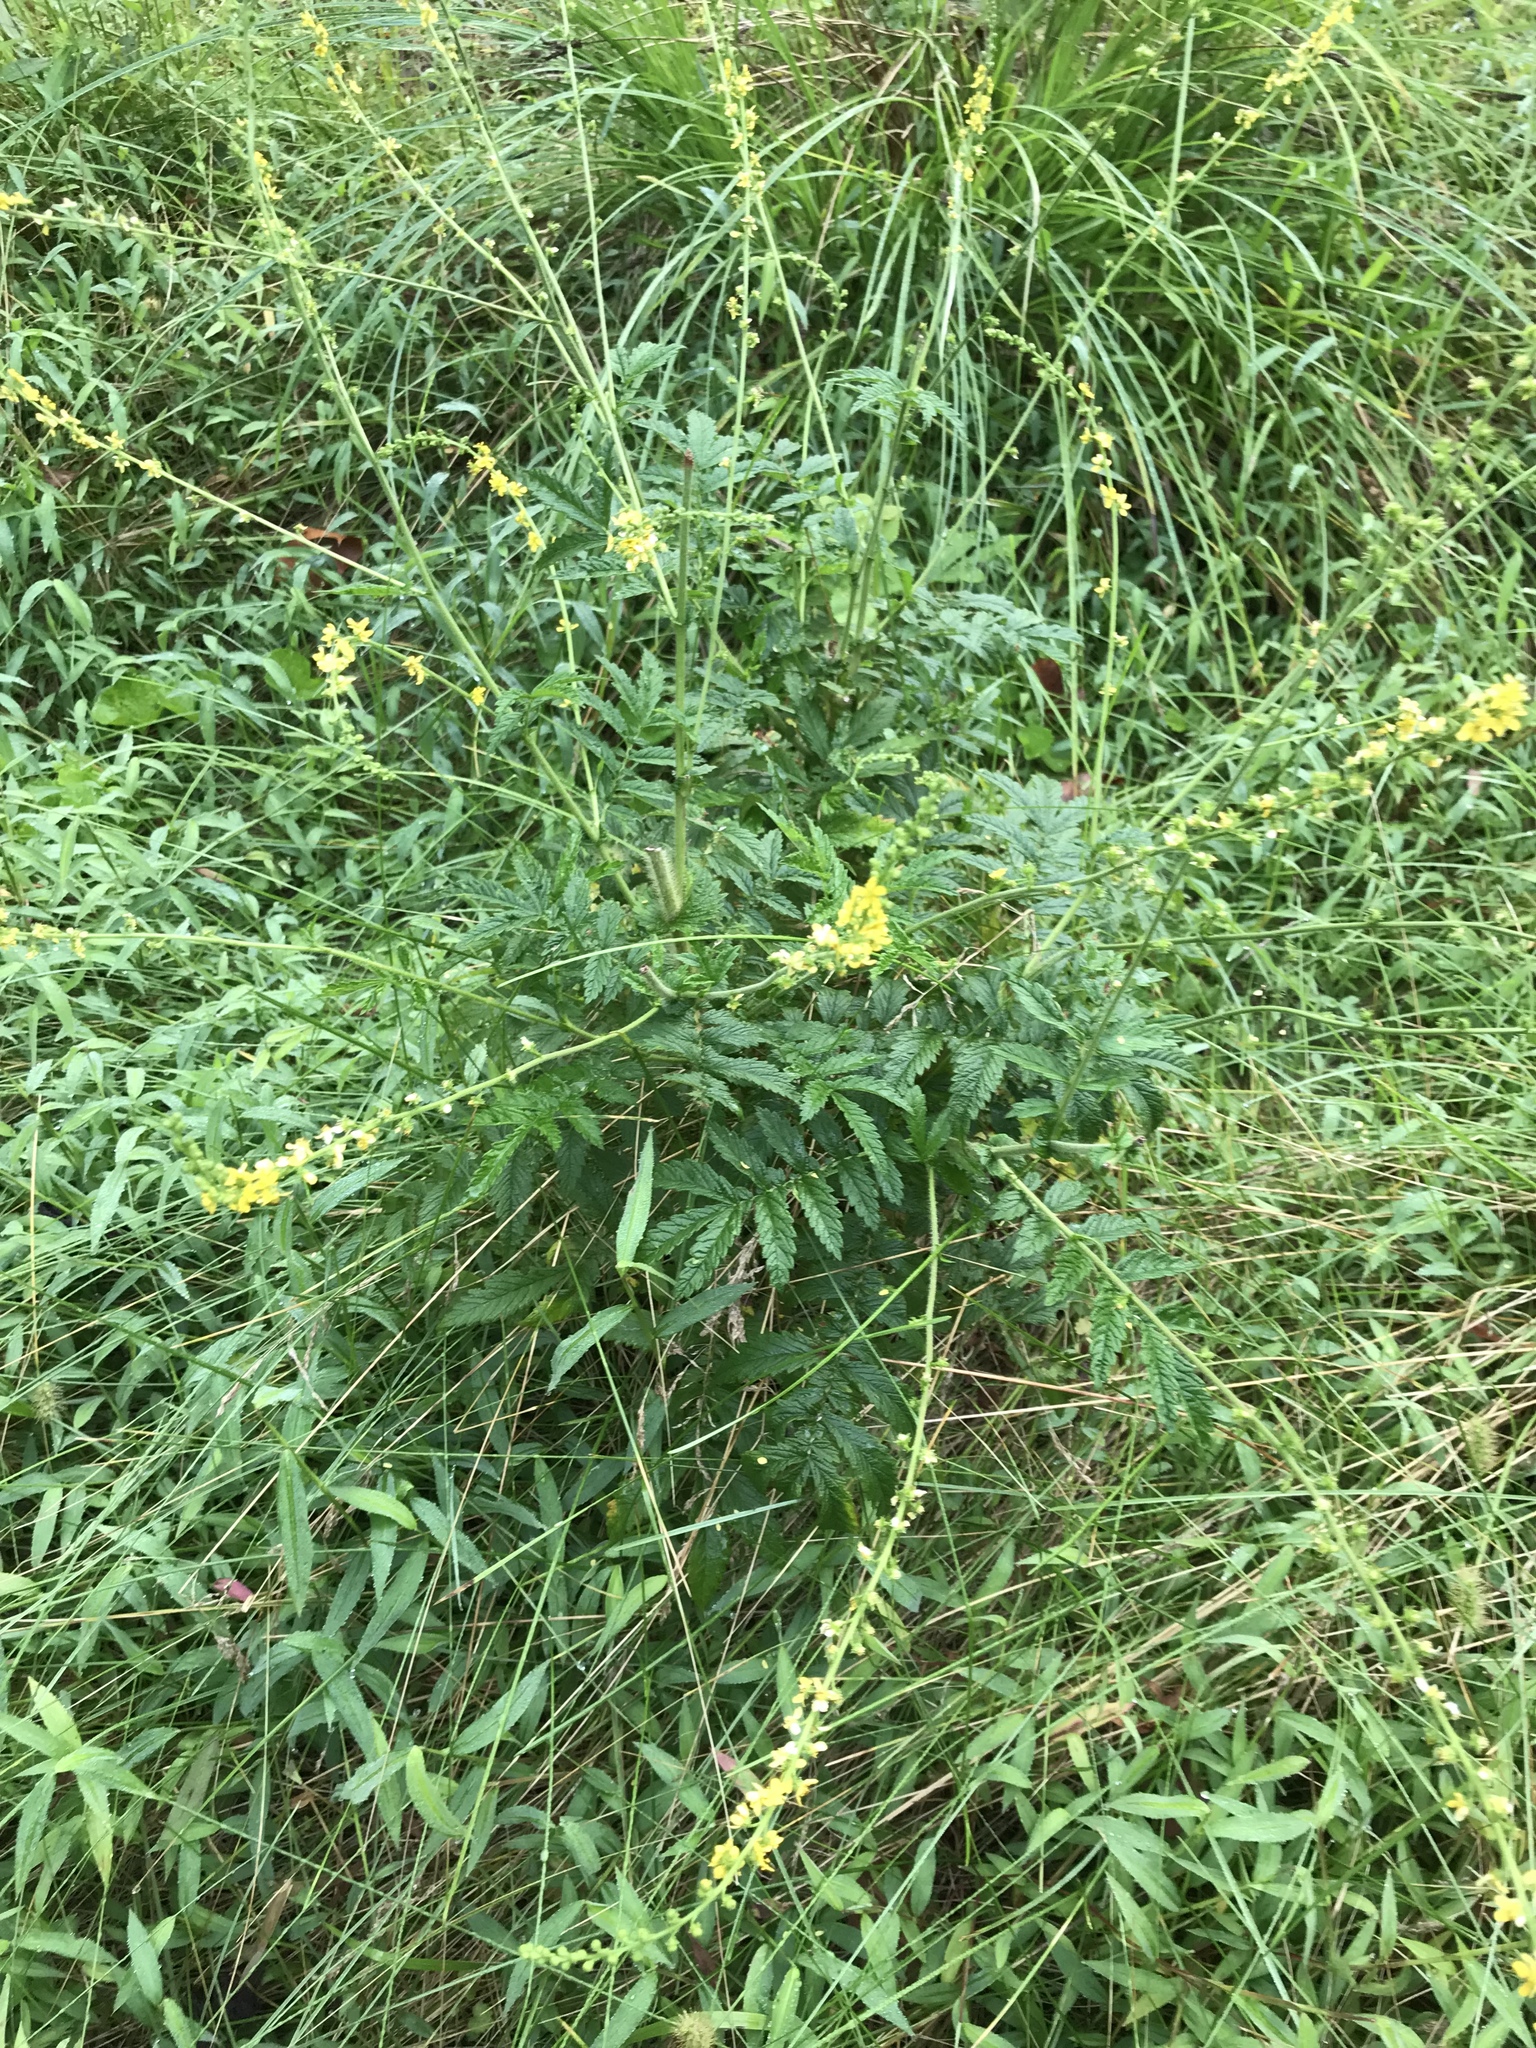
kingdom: Plantae
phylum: Tracheophyta
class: Magnoliopsida
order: Rosales
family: Rosaceae
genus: Agrimonia
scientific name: Agrimonia parviflora
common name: Harvest-lice
